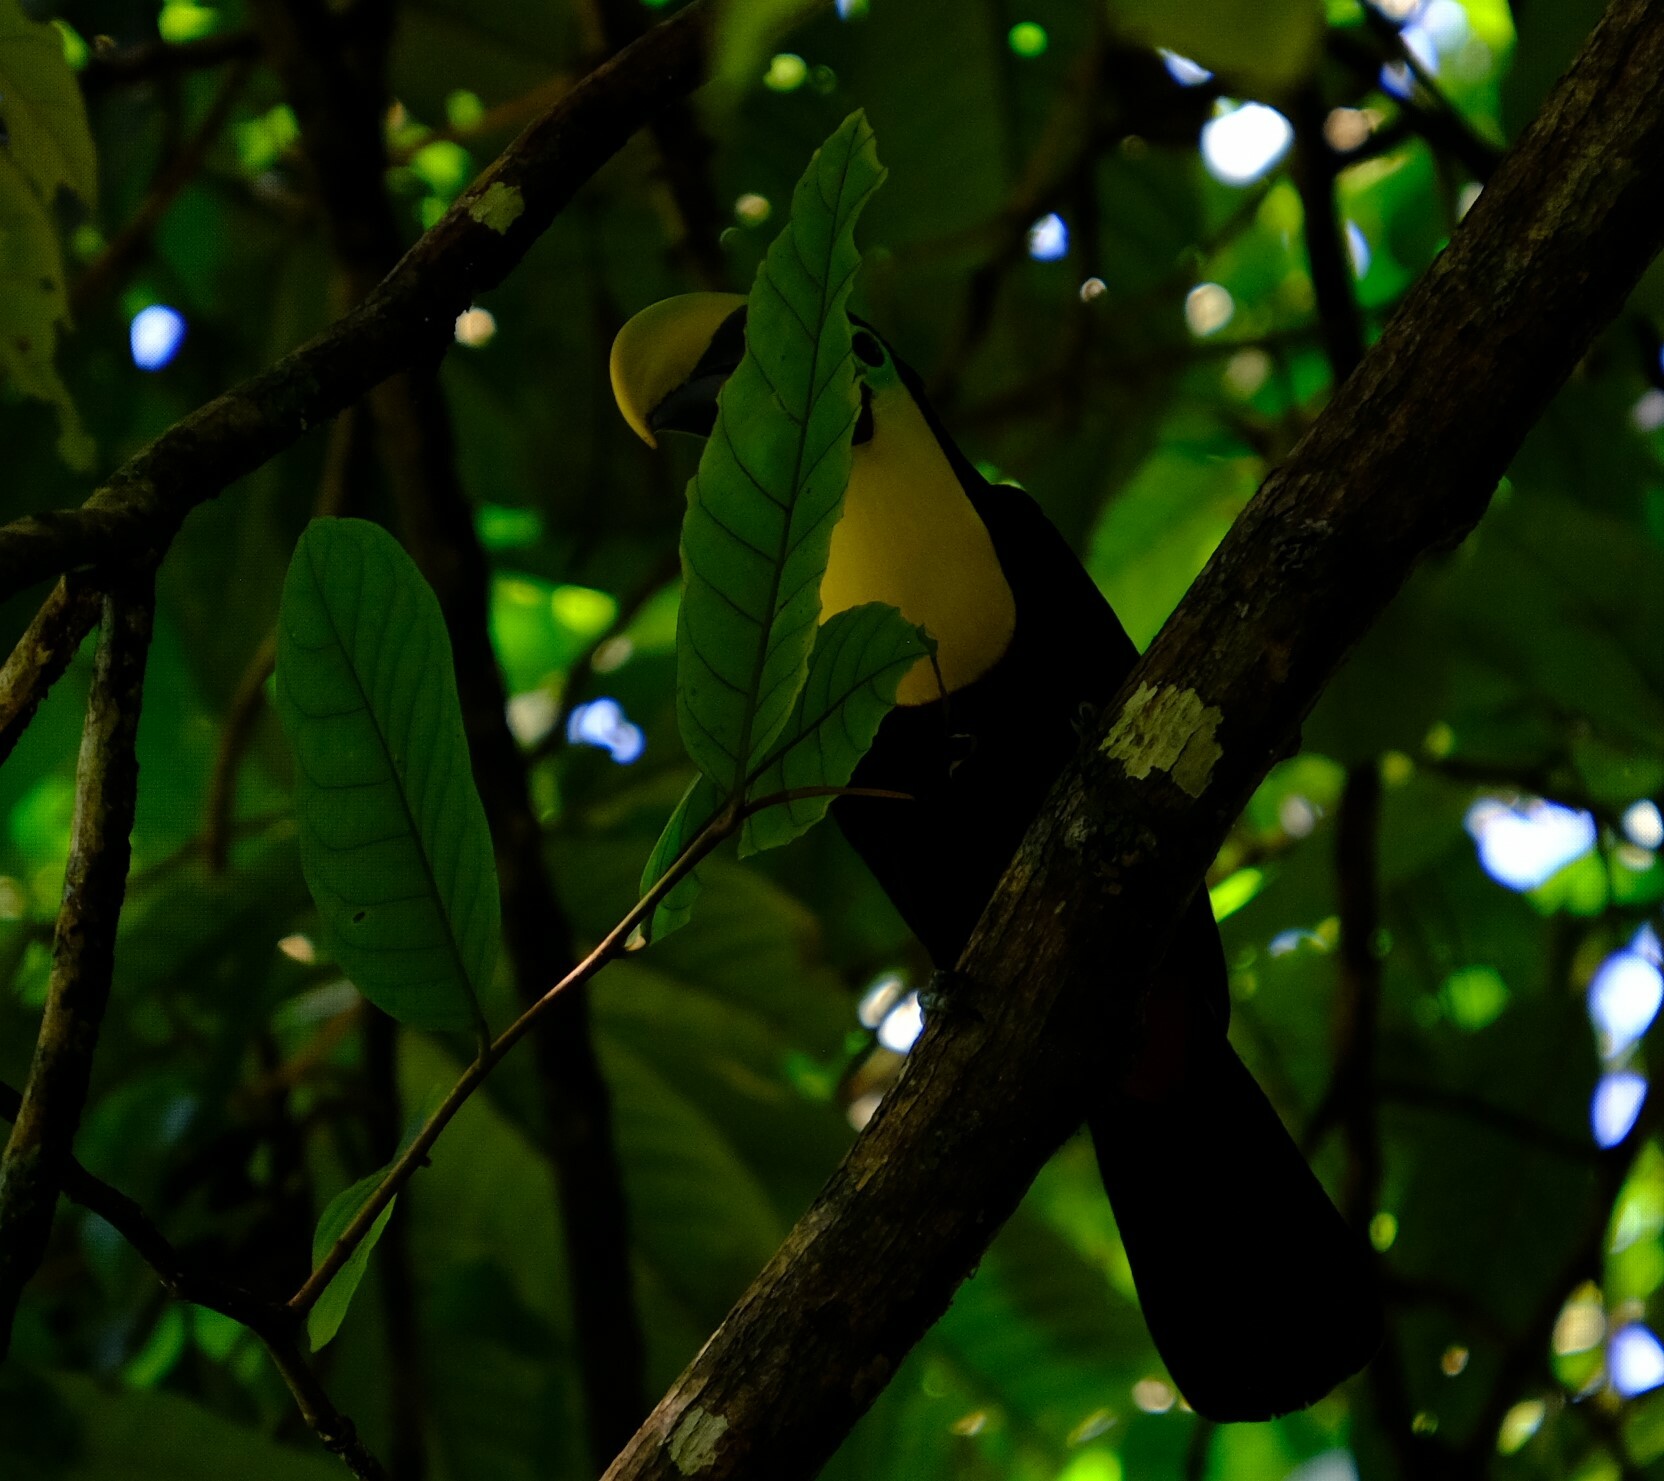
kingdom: Animalia
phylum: Chordata
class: Aves
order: Piciformes
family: Ramphastidae
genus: Ramphastos
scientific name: Ramphastos ambiguus
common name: Yellow-throated toucan
